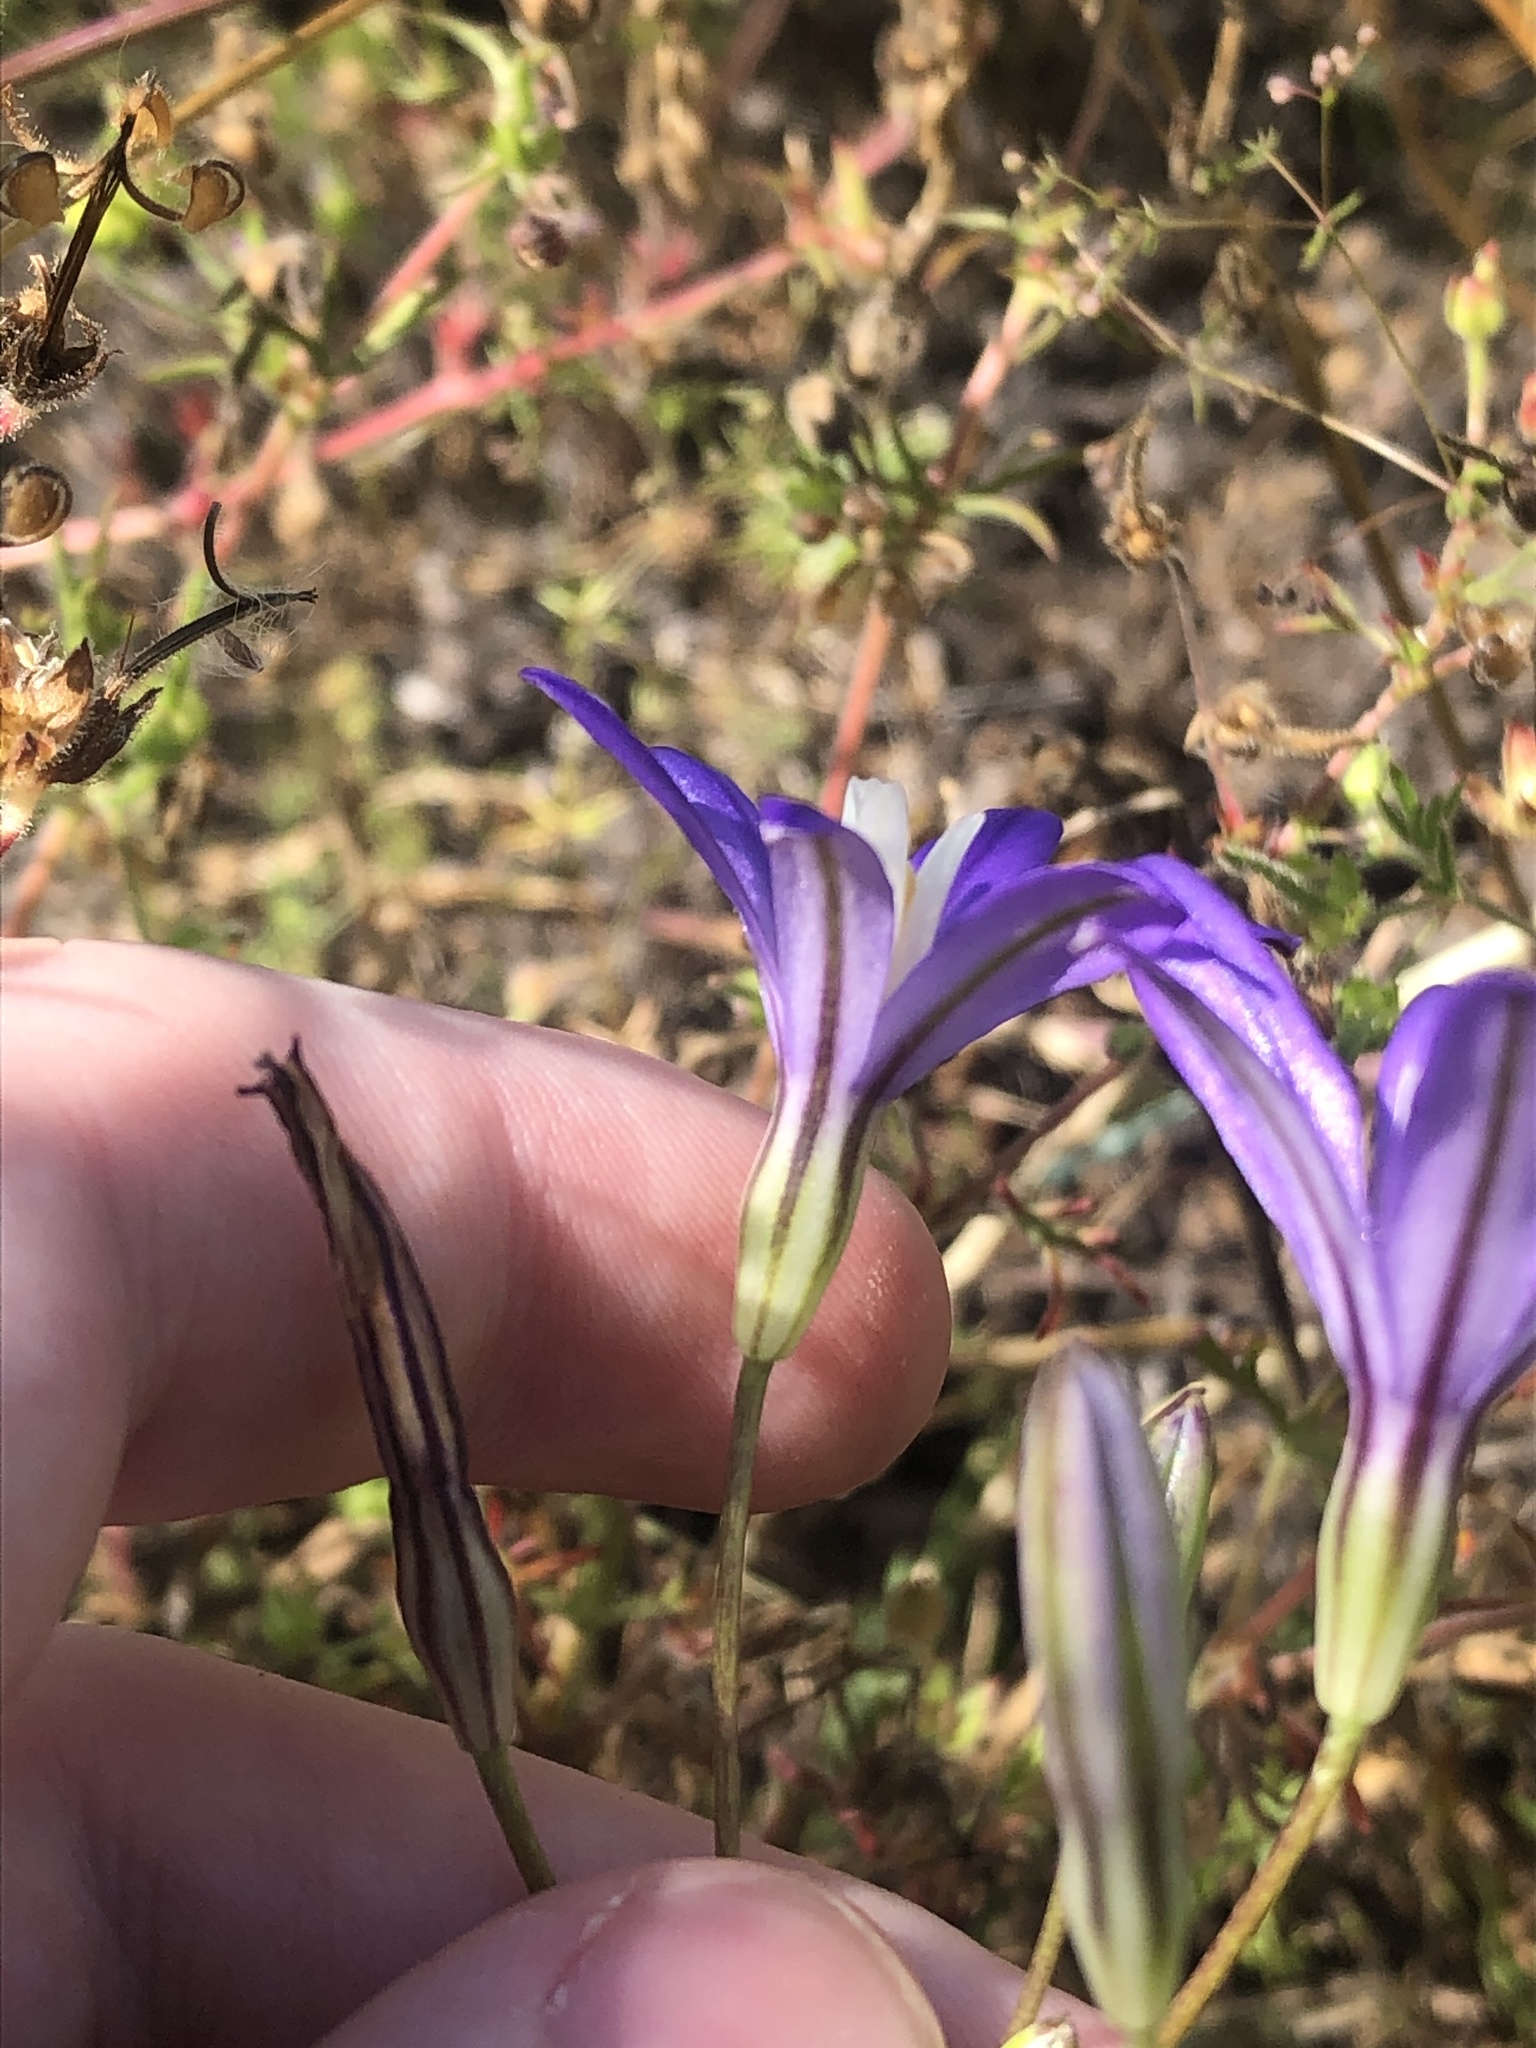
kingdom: Plantae
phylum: Tracheophyta
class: Liliopsida
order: Asparagales
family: Asparagaceae
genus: Brodiaea
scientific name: Brodiaea coronaria
